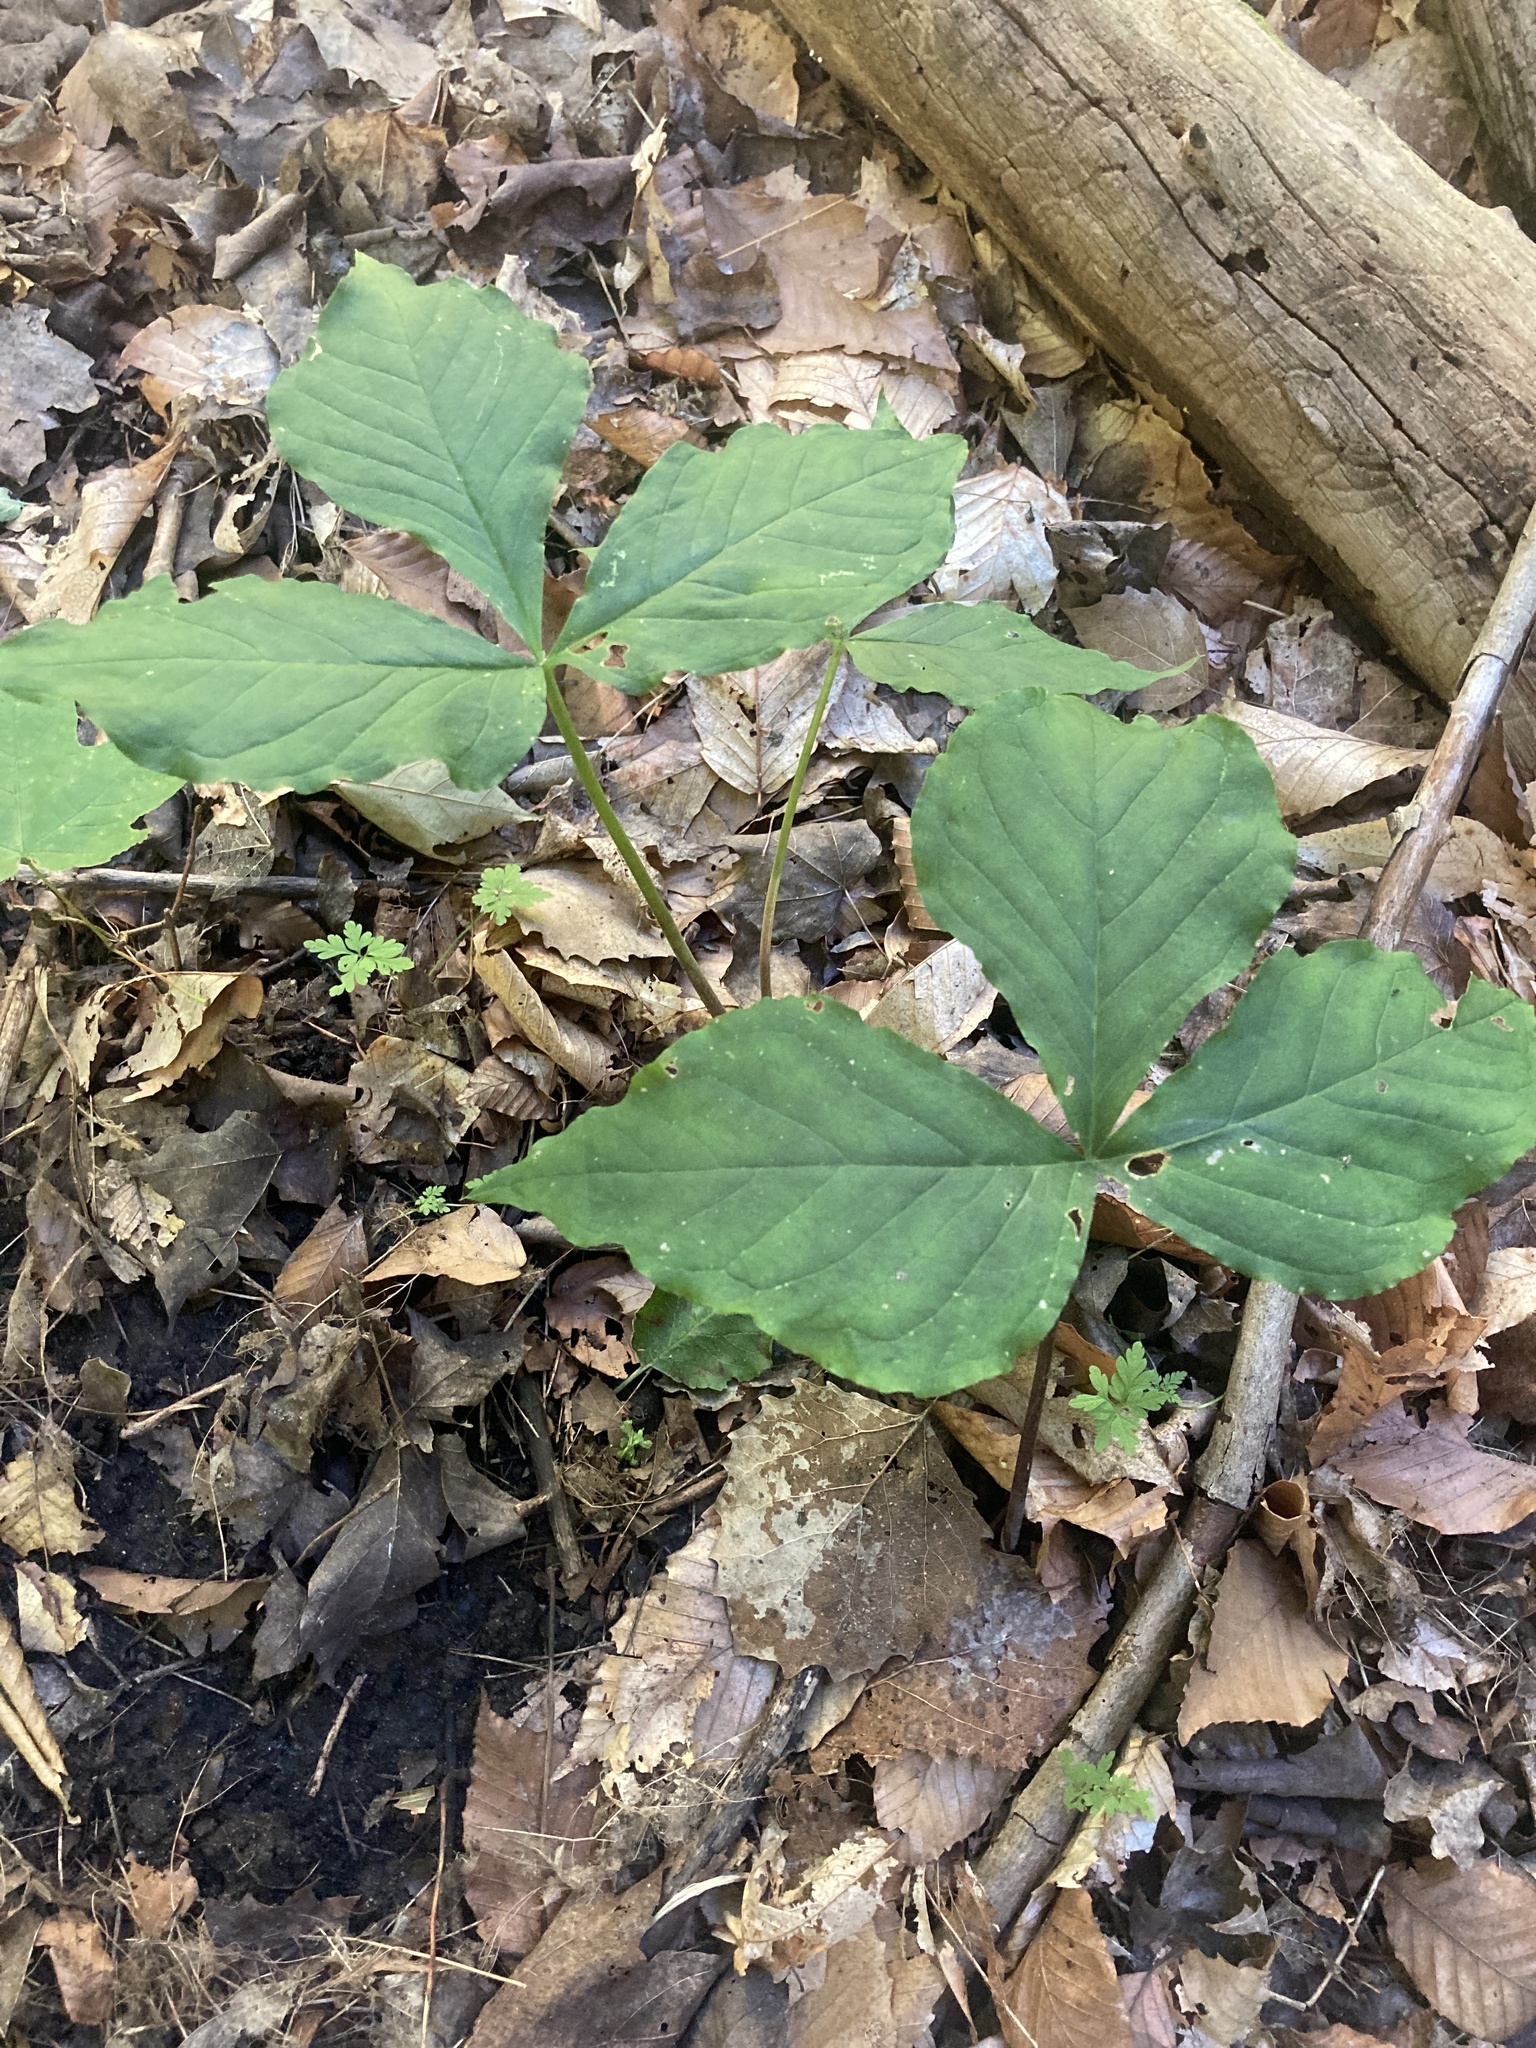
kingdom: Plantae
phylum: Tracheophyta
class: Liliopsida
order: Alismatales
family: Araceae
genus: Arisaema
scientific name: Arisaema triphyllum
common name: Jack-in-the-pulpit
